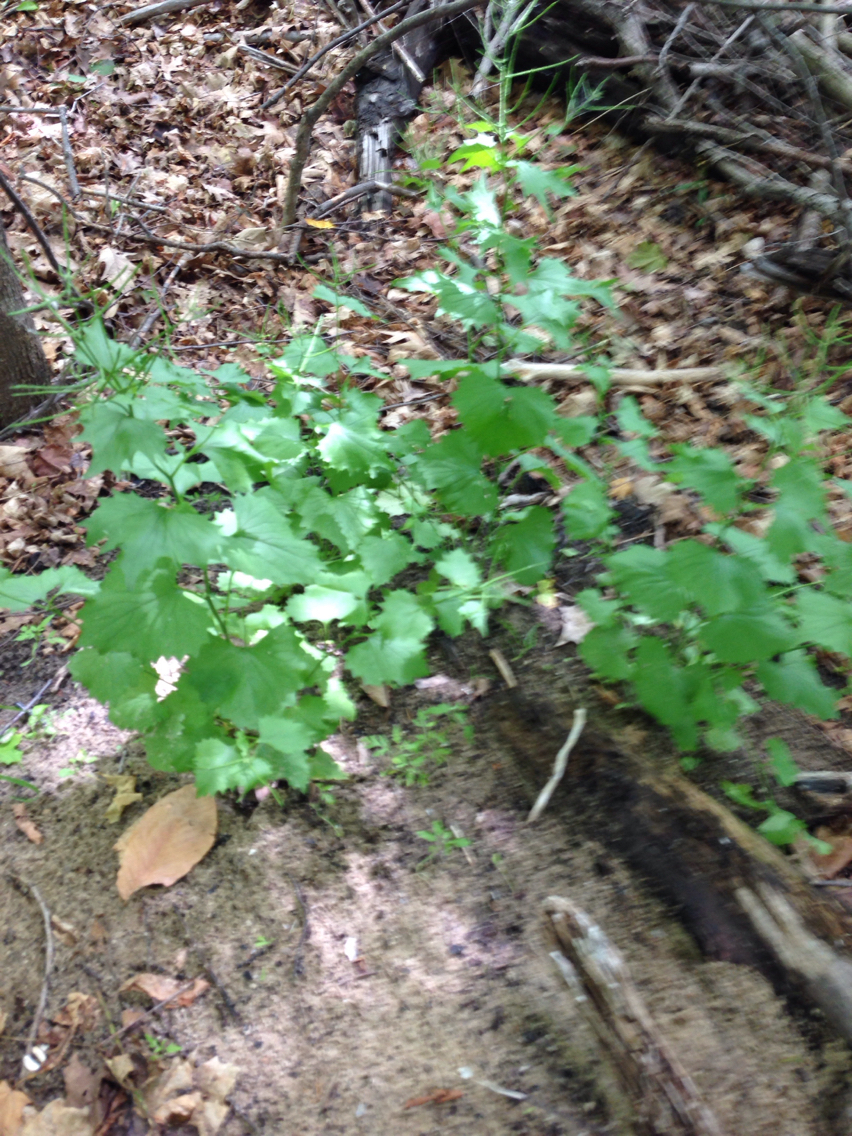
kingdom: Plantae
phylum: Tracheophyta
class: Magnoliopsida
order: Brassicales
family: Brassicaceae
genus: Alliaria
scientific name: Alliaria petiolata
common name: Garlic mustard
